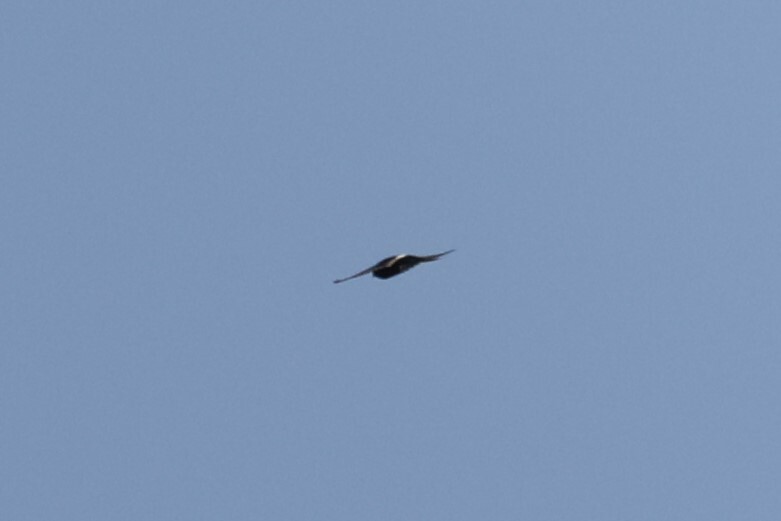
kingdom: Animalia
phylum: Chordata
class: Aves
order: Apodiformes
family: Apodidae
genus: Apus
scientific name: Apus caffer
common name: White-rumped swift
